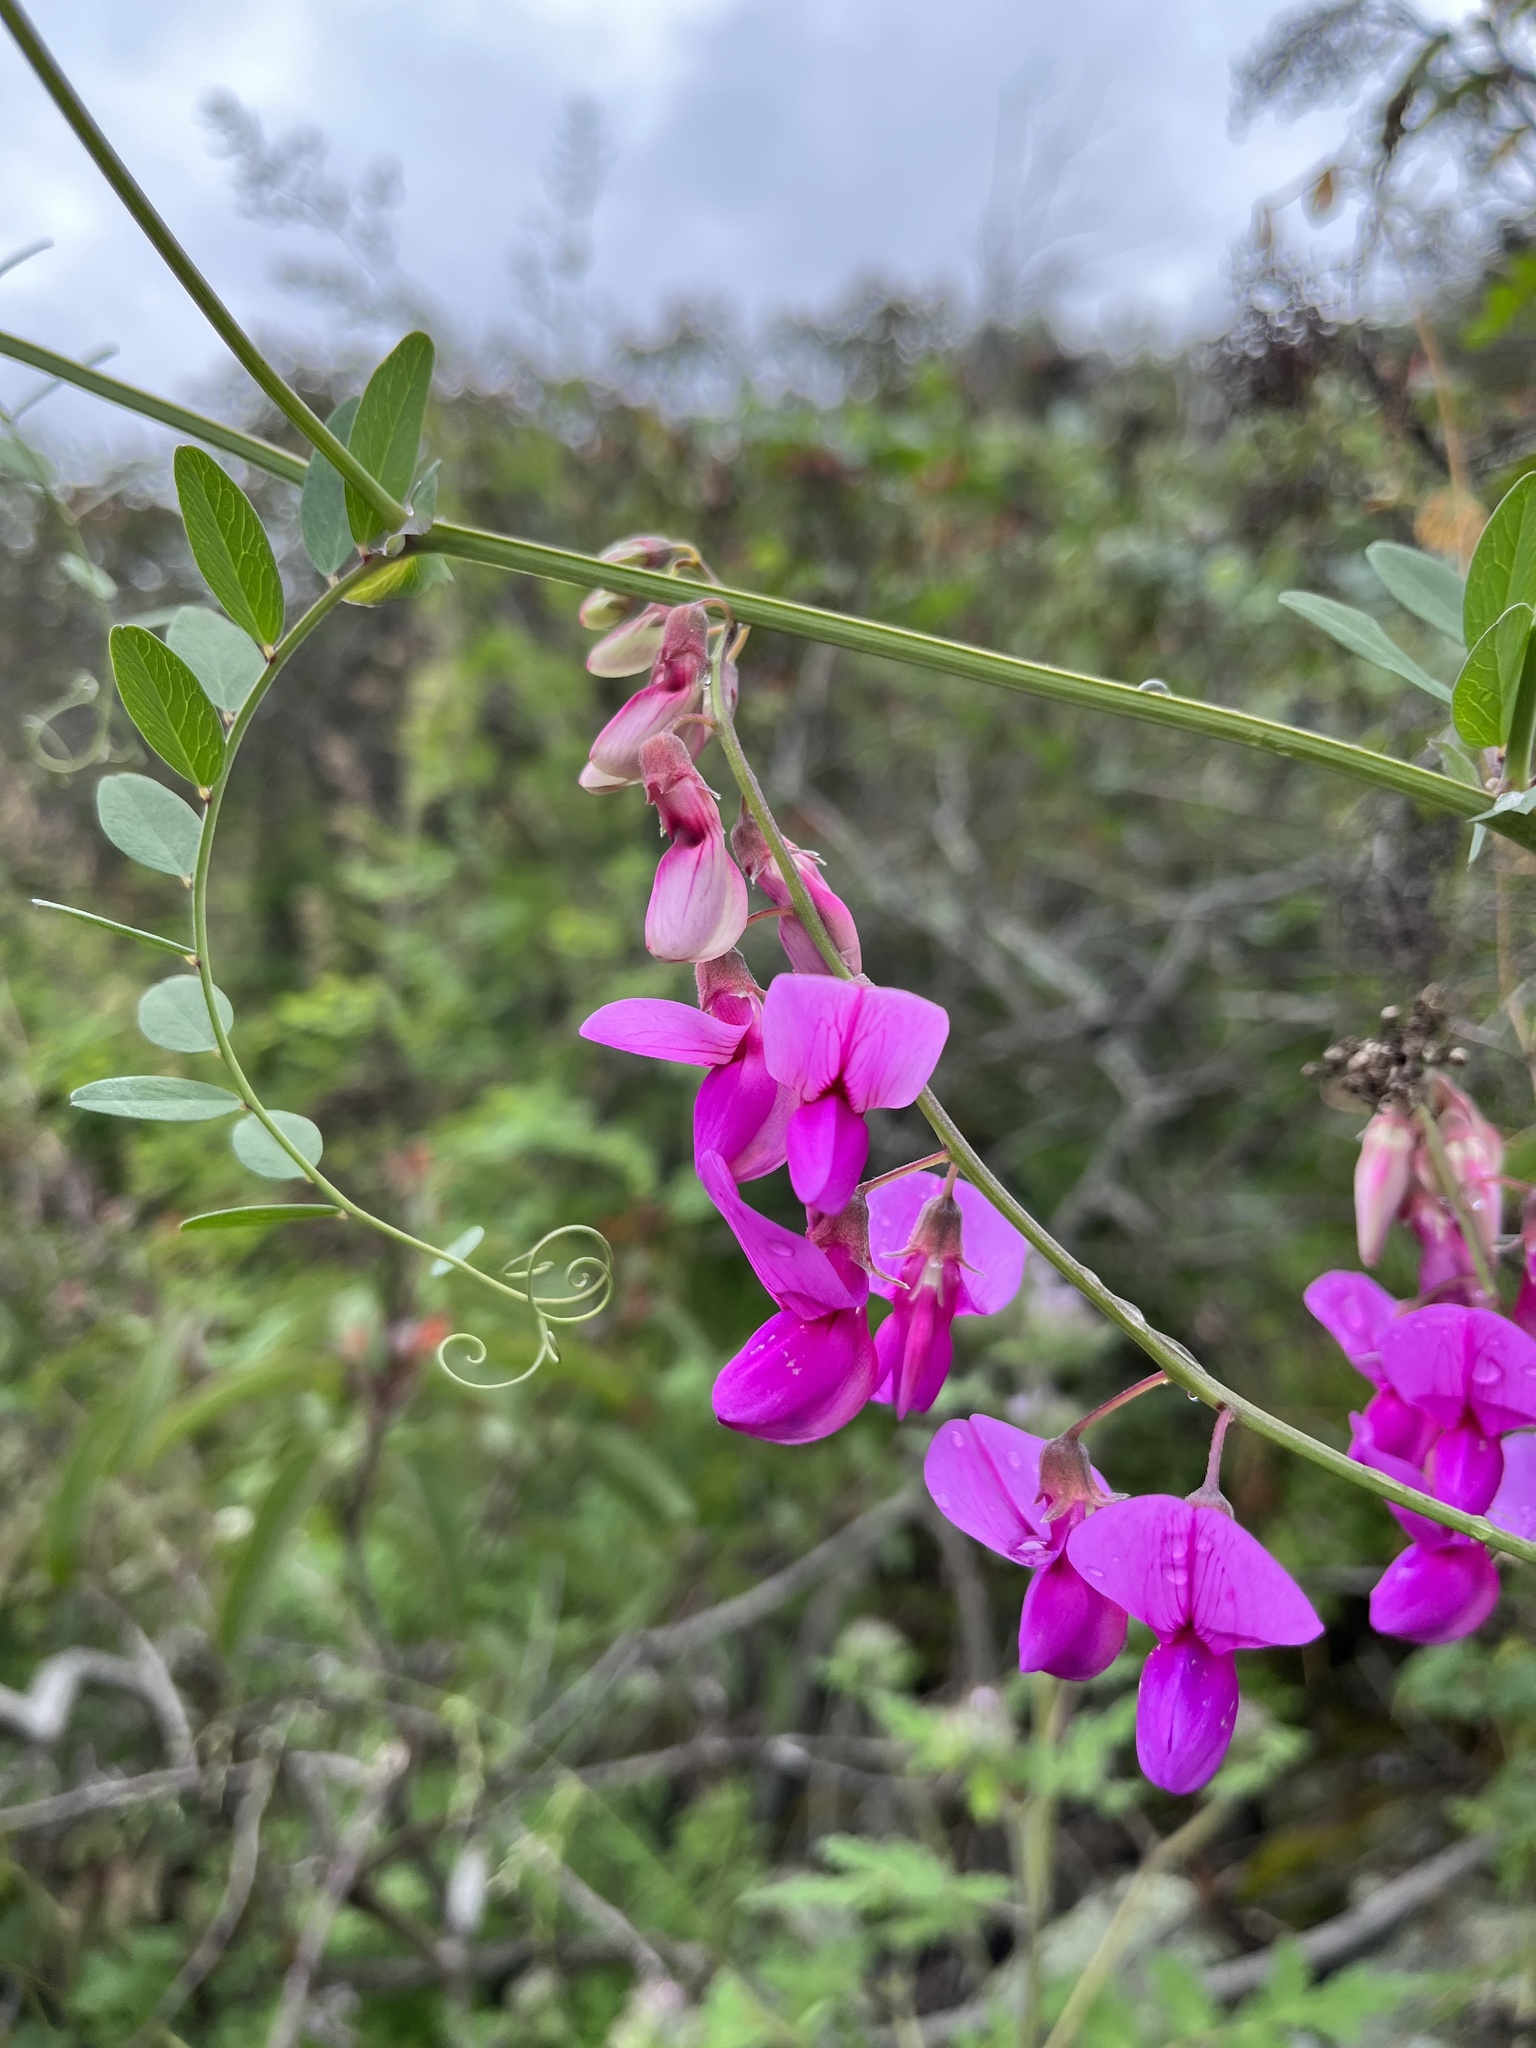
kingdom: Plantae
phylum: Tracheophyta
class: Magnoliopsida
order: Fabales
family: Fabaceae
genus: Lathyrus
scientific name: Lathyrus vestitus
